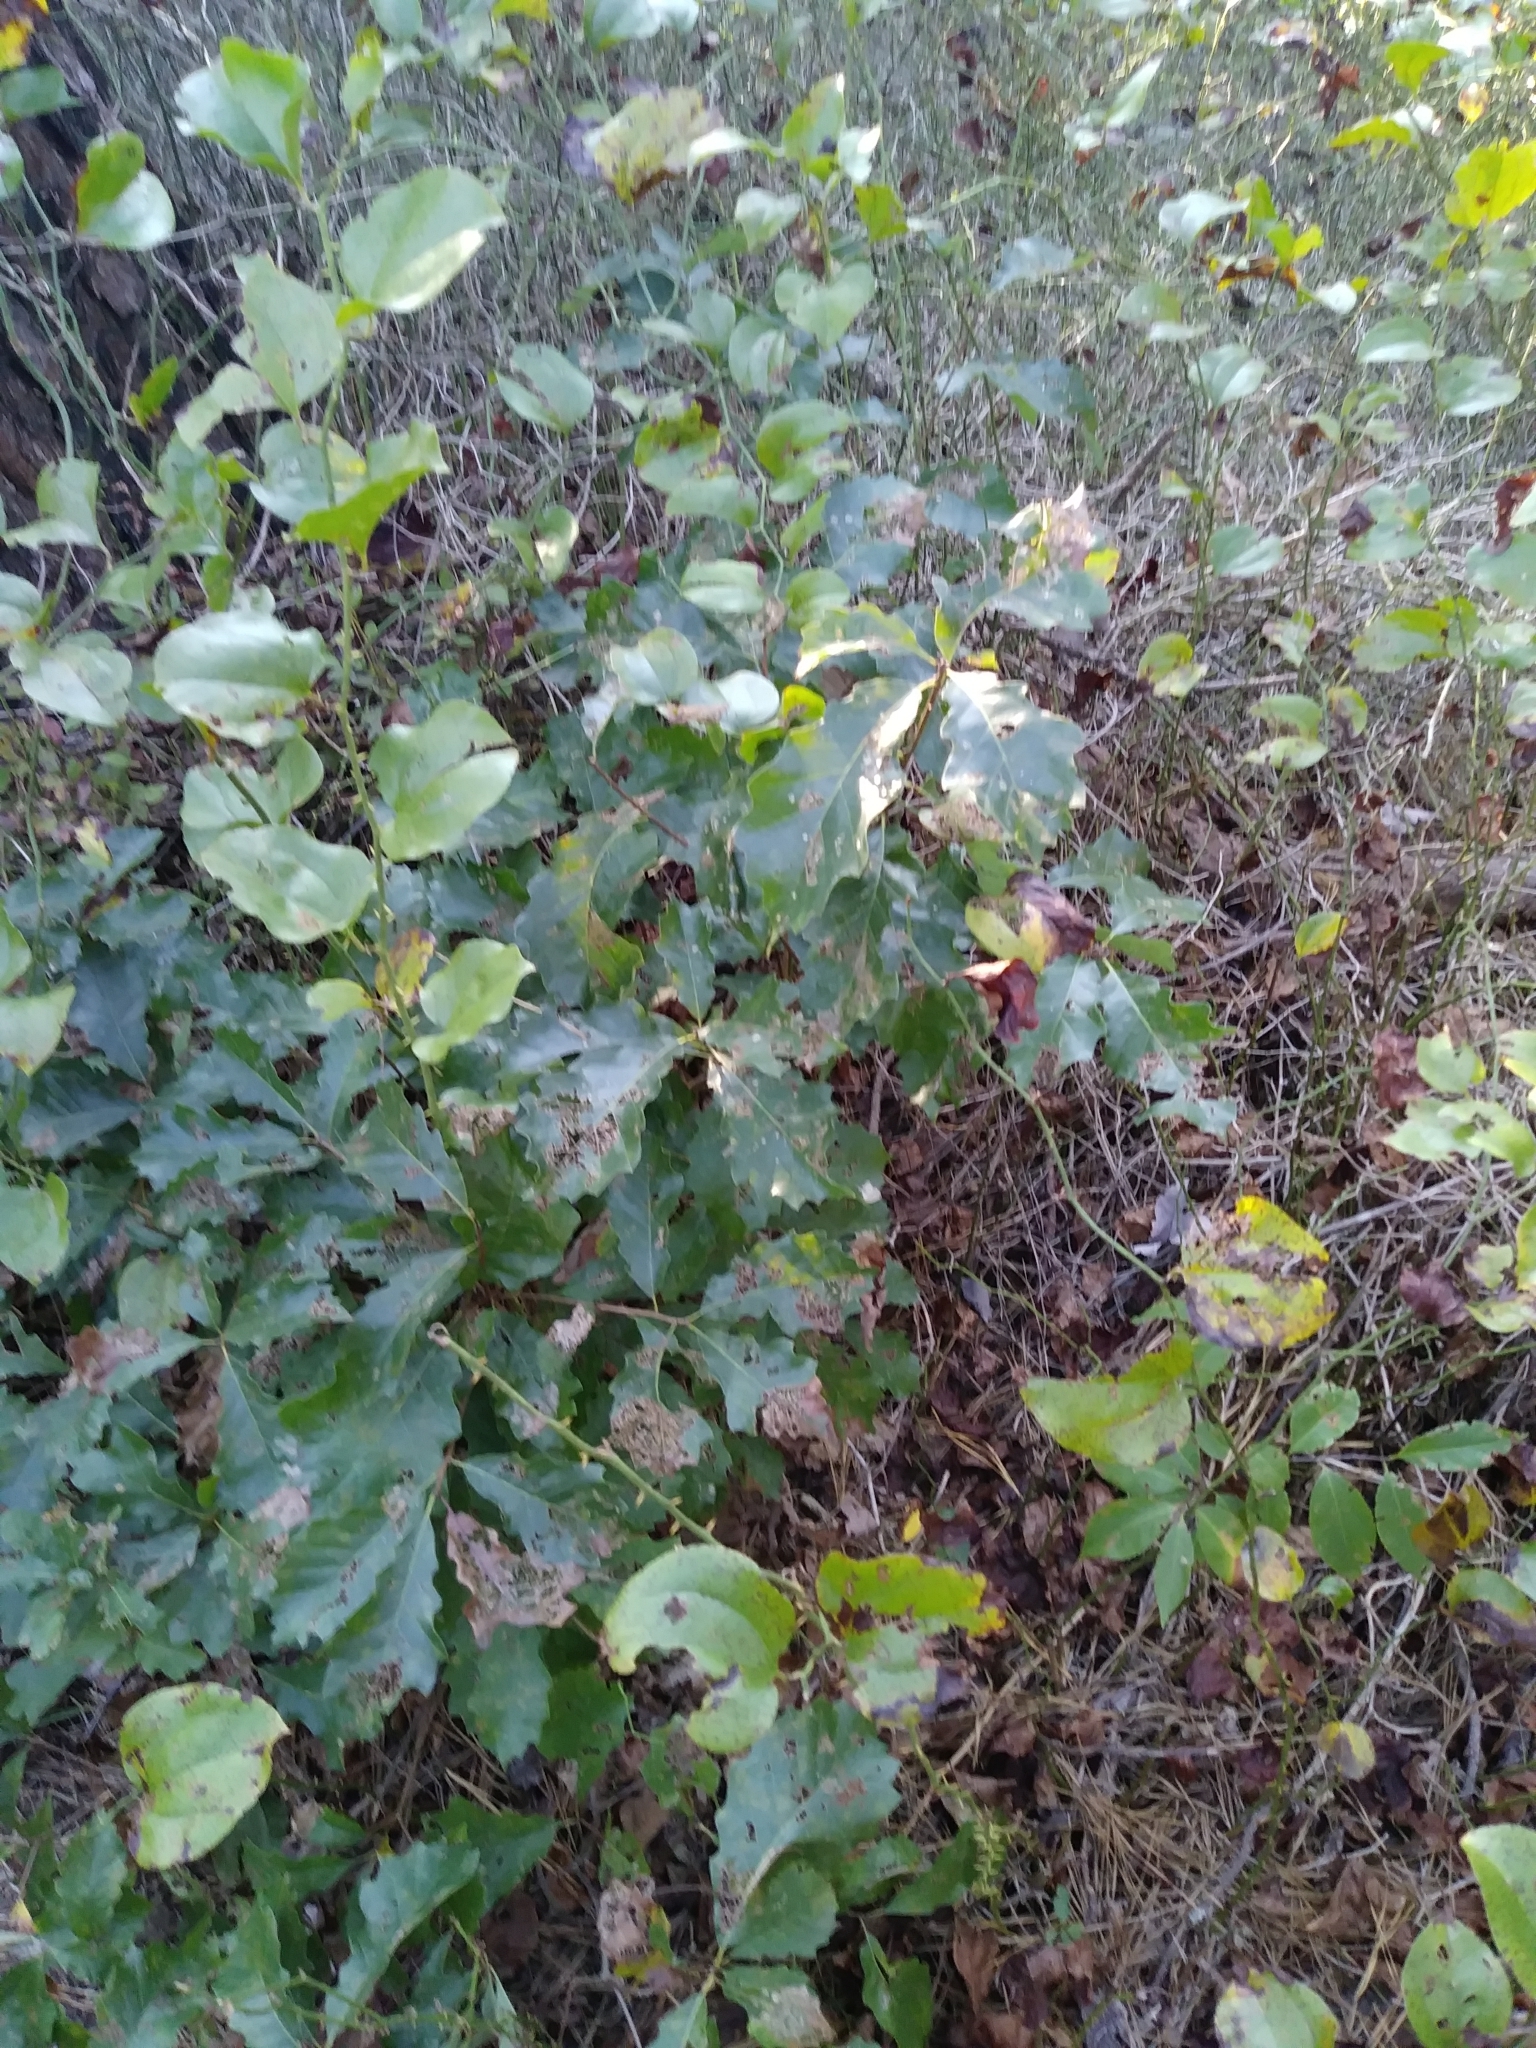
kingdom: Plantae
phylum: Tracheophyta
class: Magnoliopsida
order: Fagales
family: Fagaceae
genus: Quercus
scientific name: Quercus prinoides
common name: Dwarf chinkapin oak
